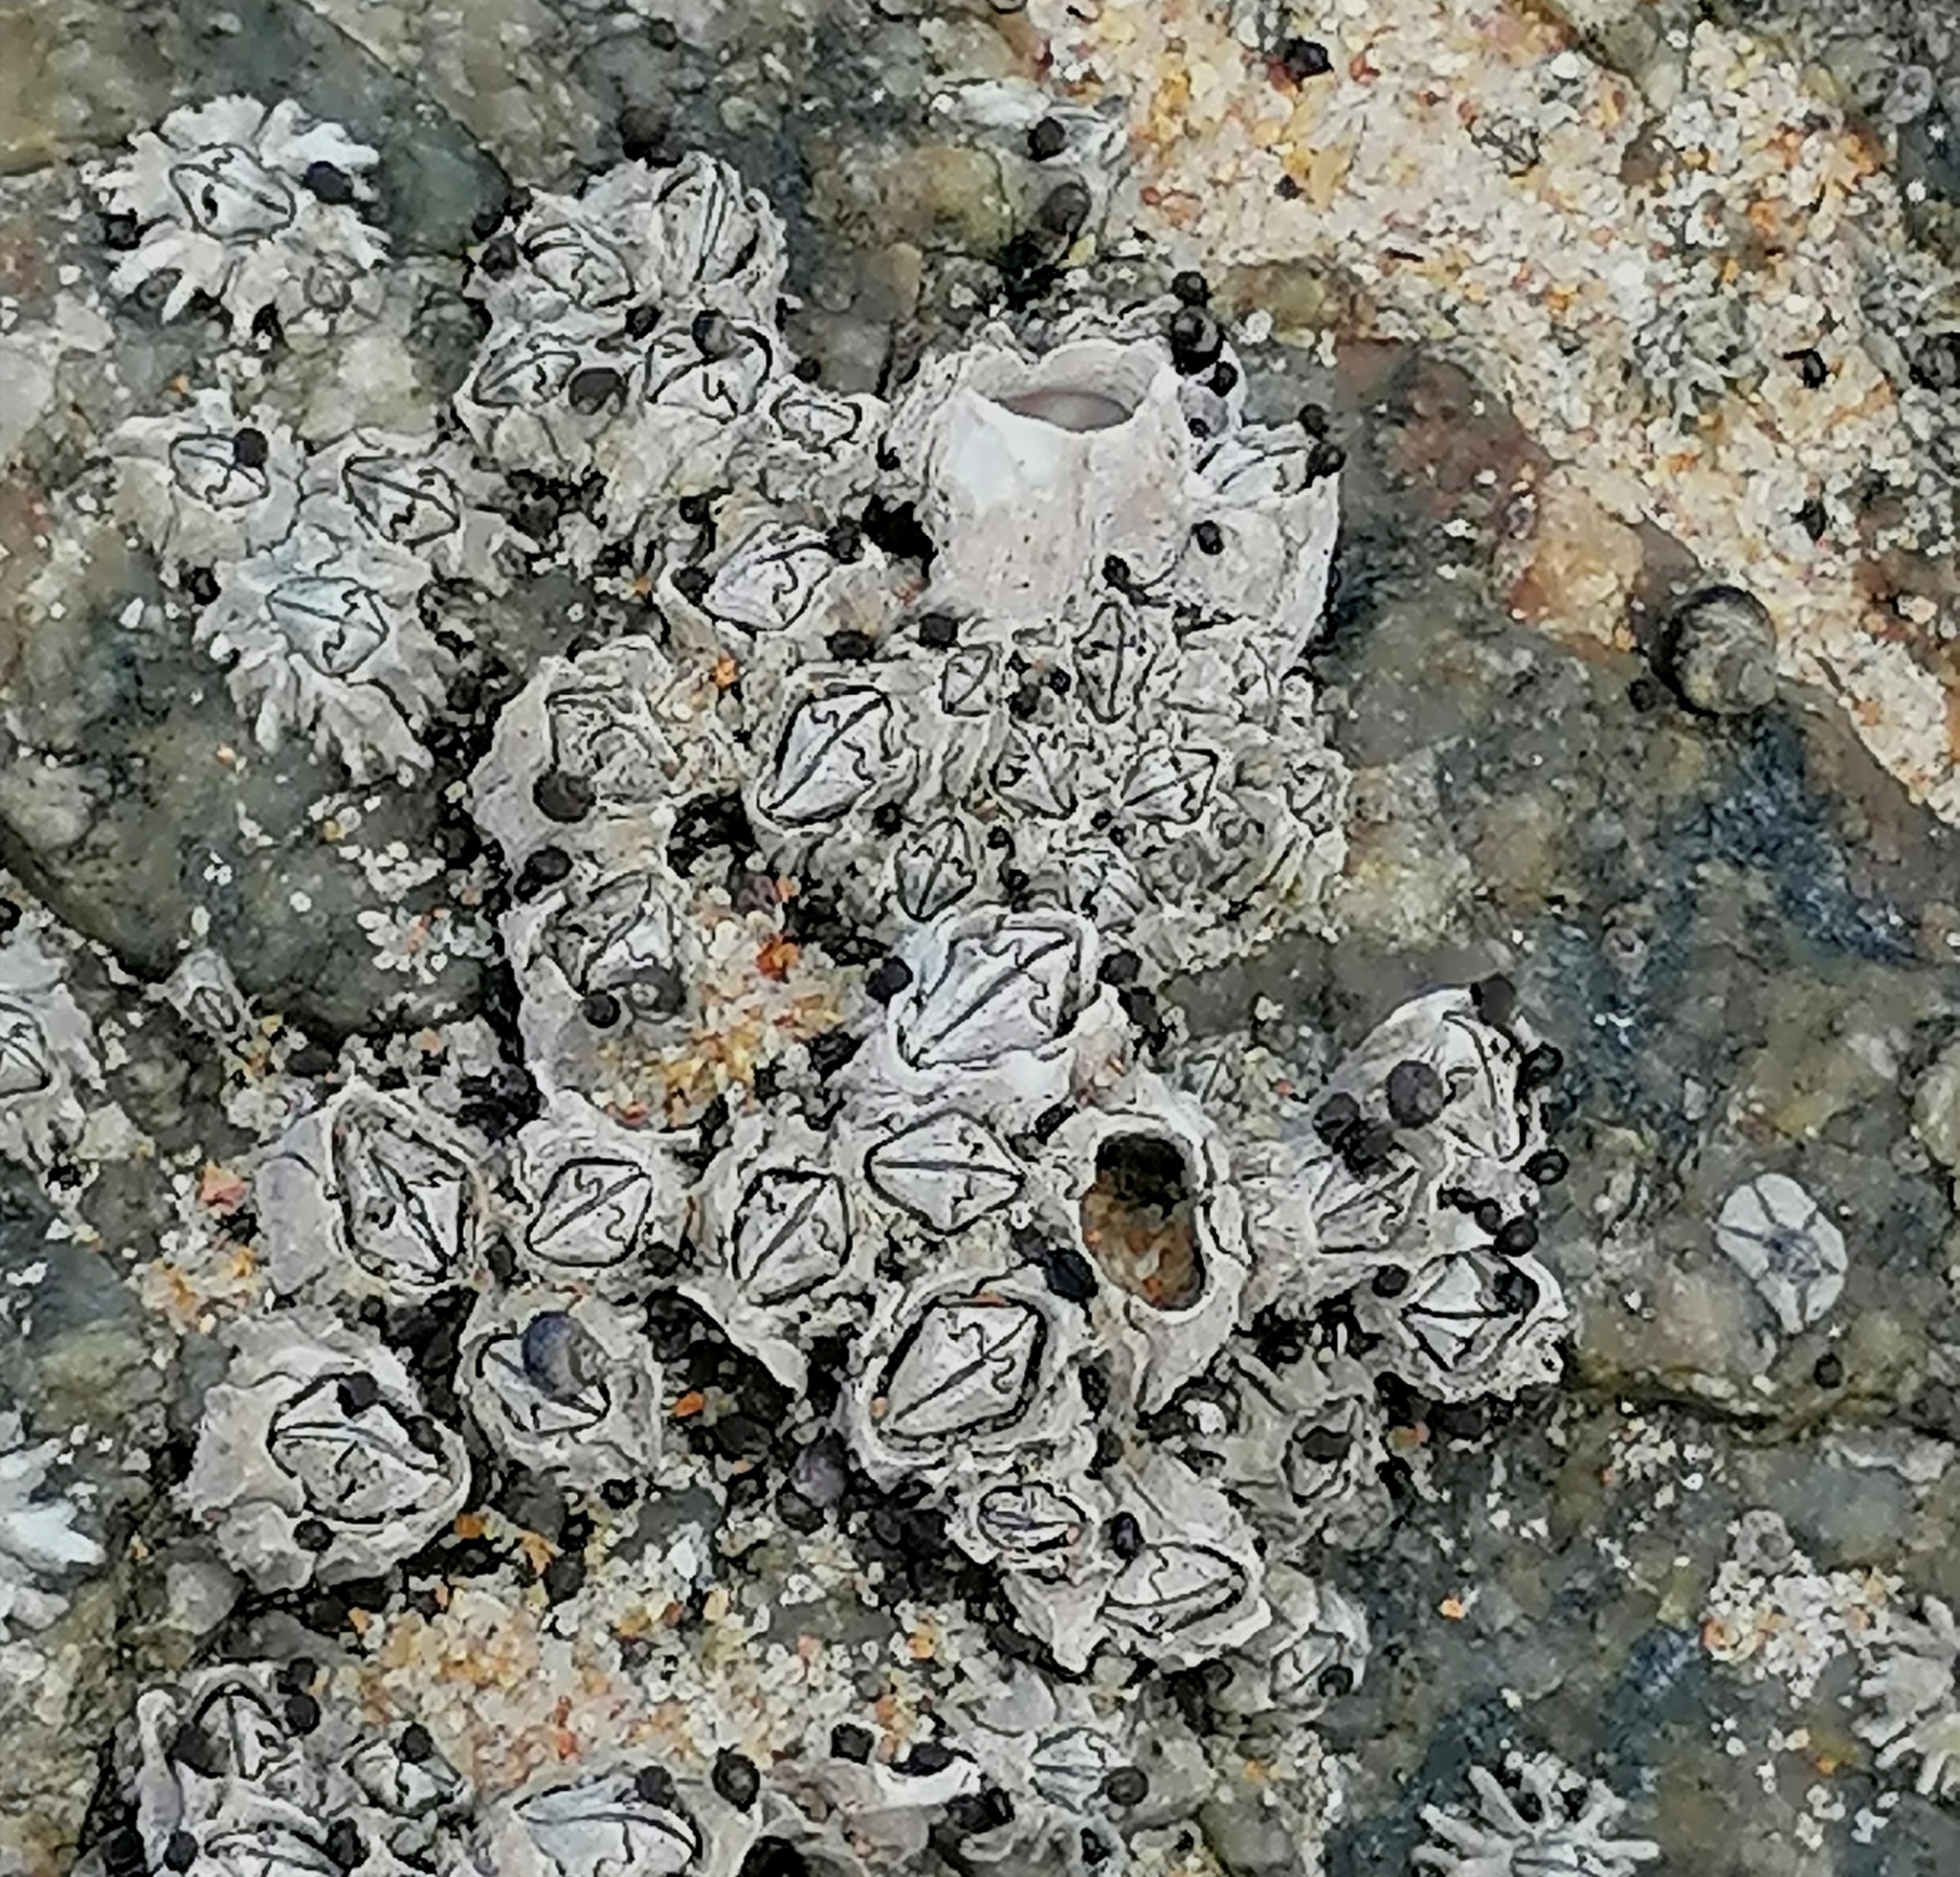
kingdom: Animalia
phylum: Arthropoda
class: Maxillopoda
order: Sessilia
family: Chthamalidae
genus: Chthamalus
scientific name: Chthamalus dentatus
